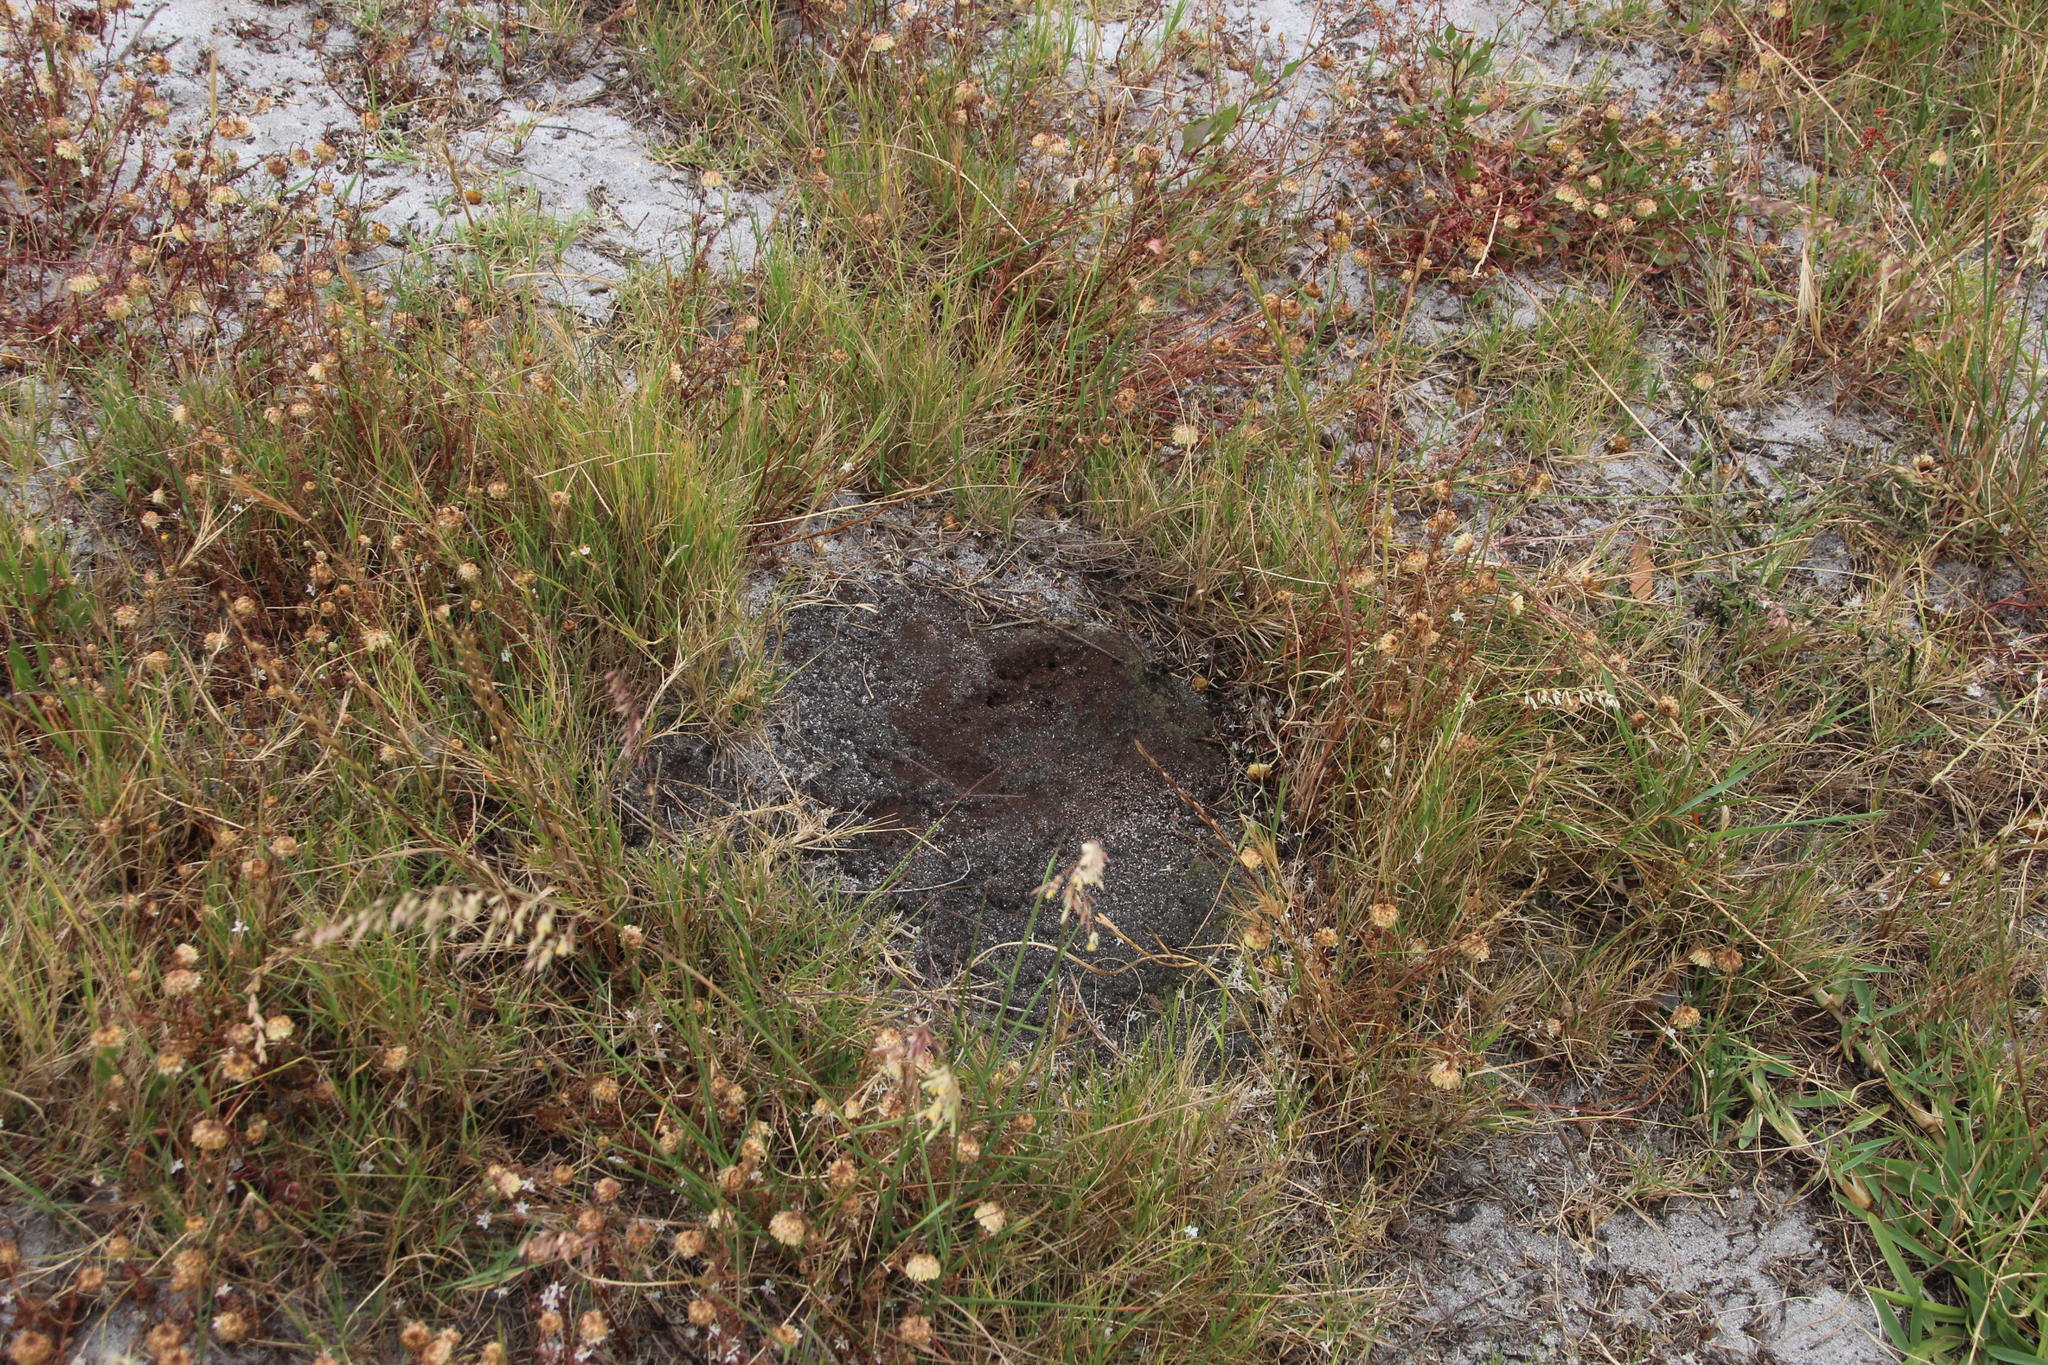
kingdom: Animalia
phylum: Arthropoda
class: Insecta
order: Blattodea
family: Termitidae
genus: Amitermes
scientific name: Amitermes hastatus
